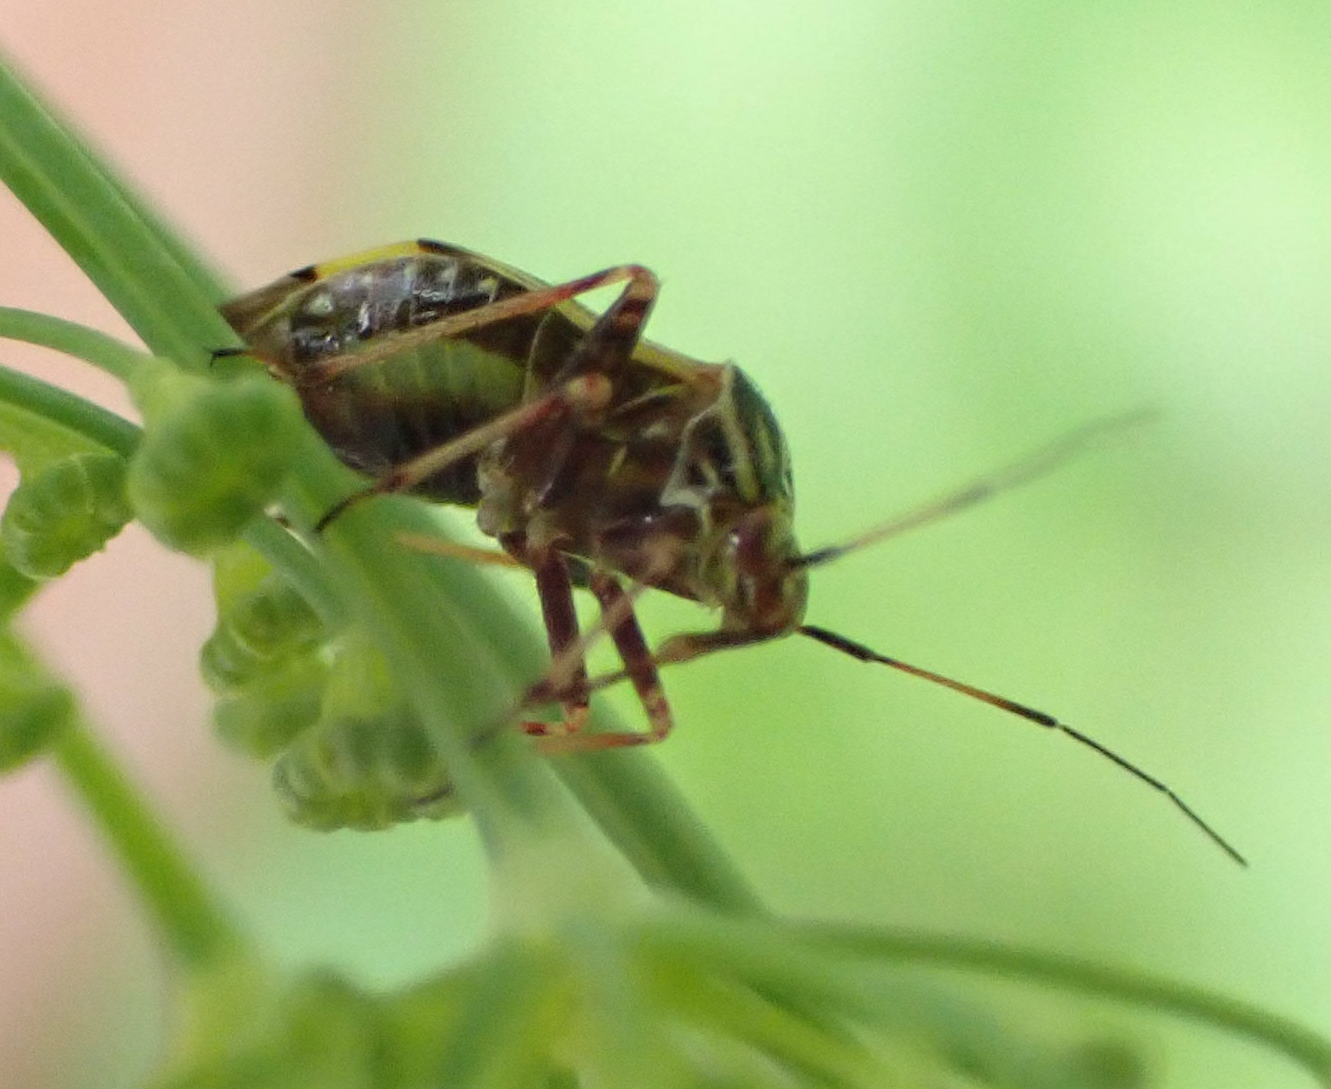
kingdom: Animalia
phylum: Arthropoda
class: Insecta
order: Hemiptera
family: Miridae
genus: Lygus
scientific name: Lygus lineolaris
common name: North american tarnished plant bug
